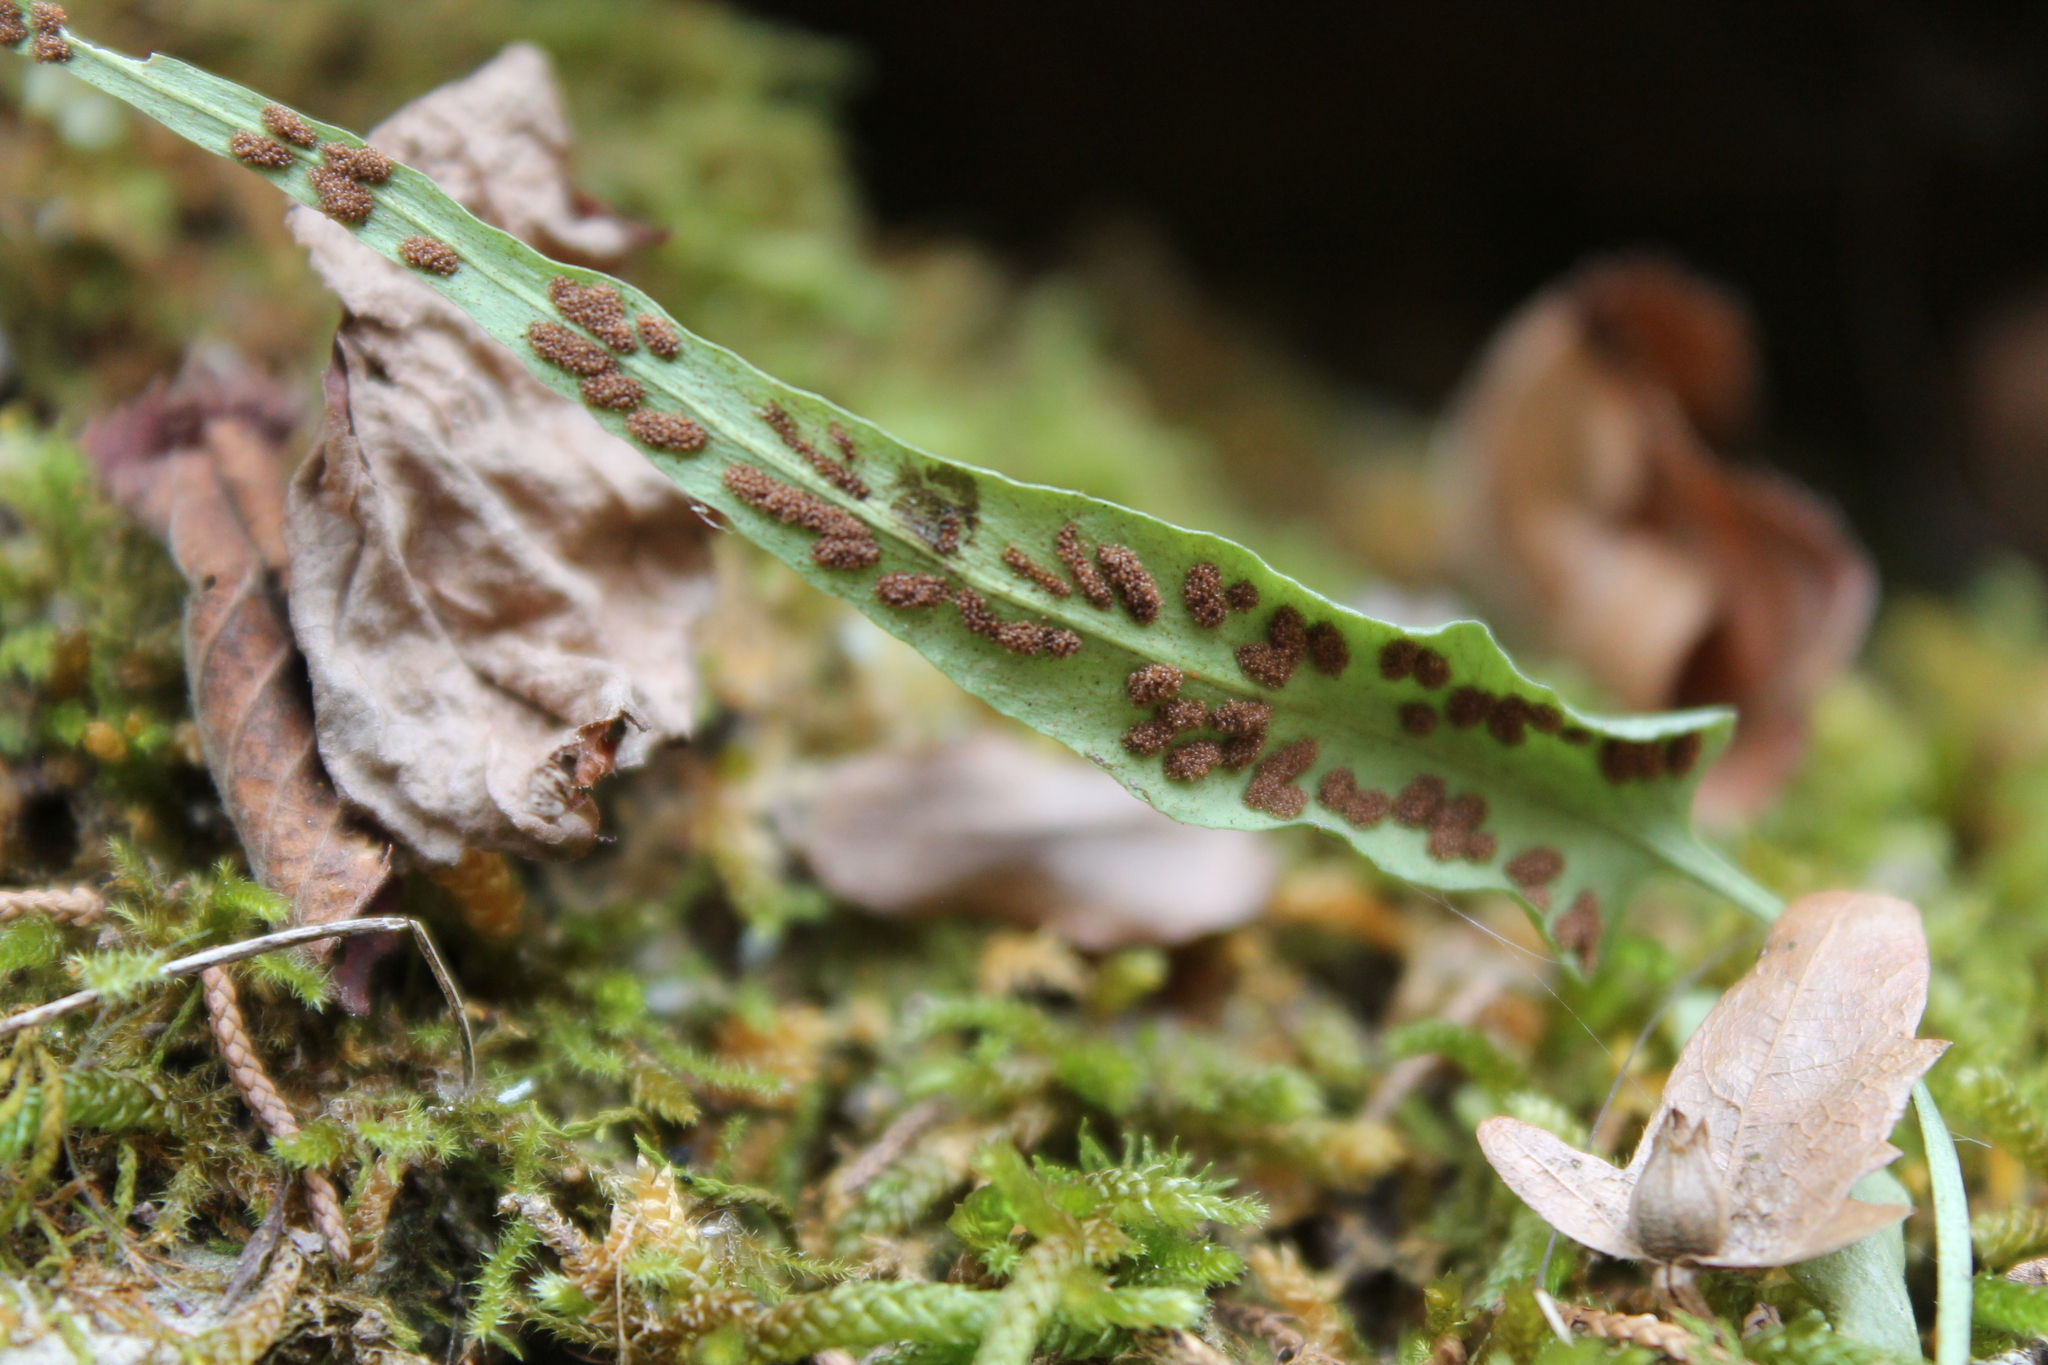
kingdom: Plantae
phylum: Tracheophyta
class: Polypodiopsida
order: Polypodiales
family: Aspleniaceae
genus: Asplenium
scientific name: Asplenium rhizophyllum
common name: Walking fern
